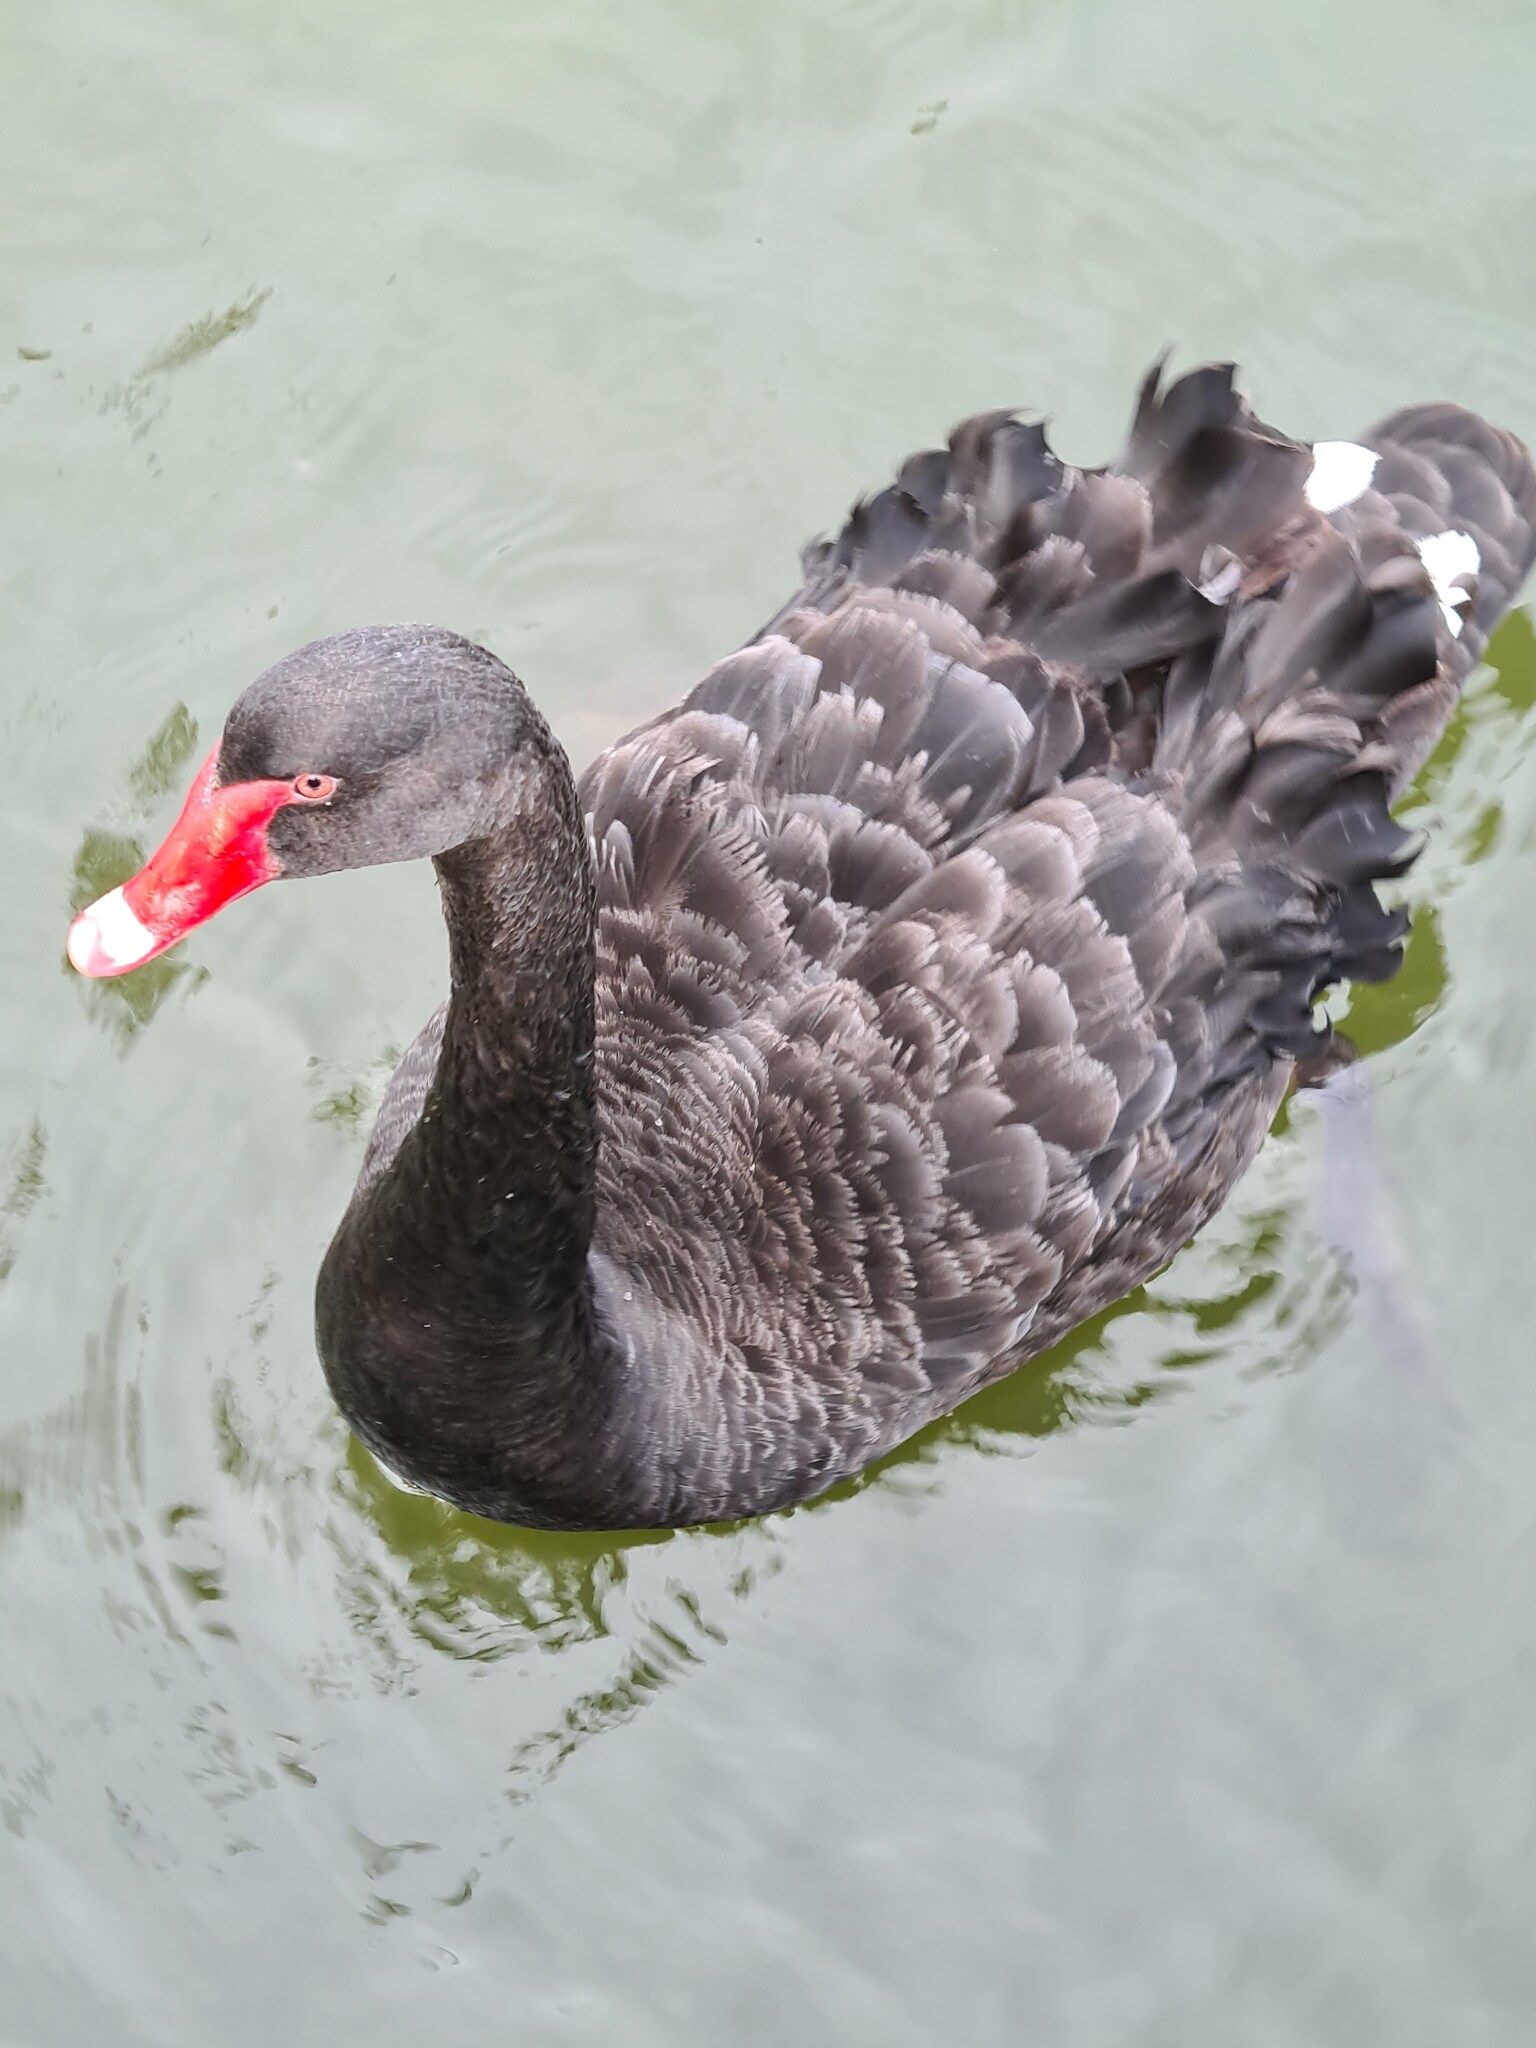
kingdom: Animalia
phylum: Chordata
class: Aves
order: Anseriformes
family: Anatidae
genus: Cygnus
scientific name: Cygnus atratus
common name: Black swan
